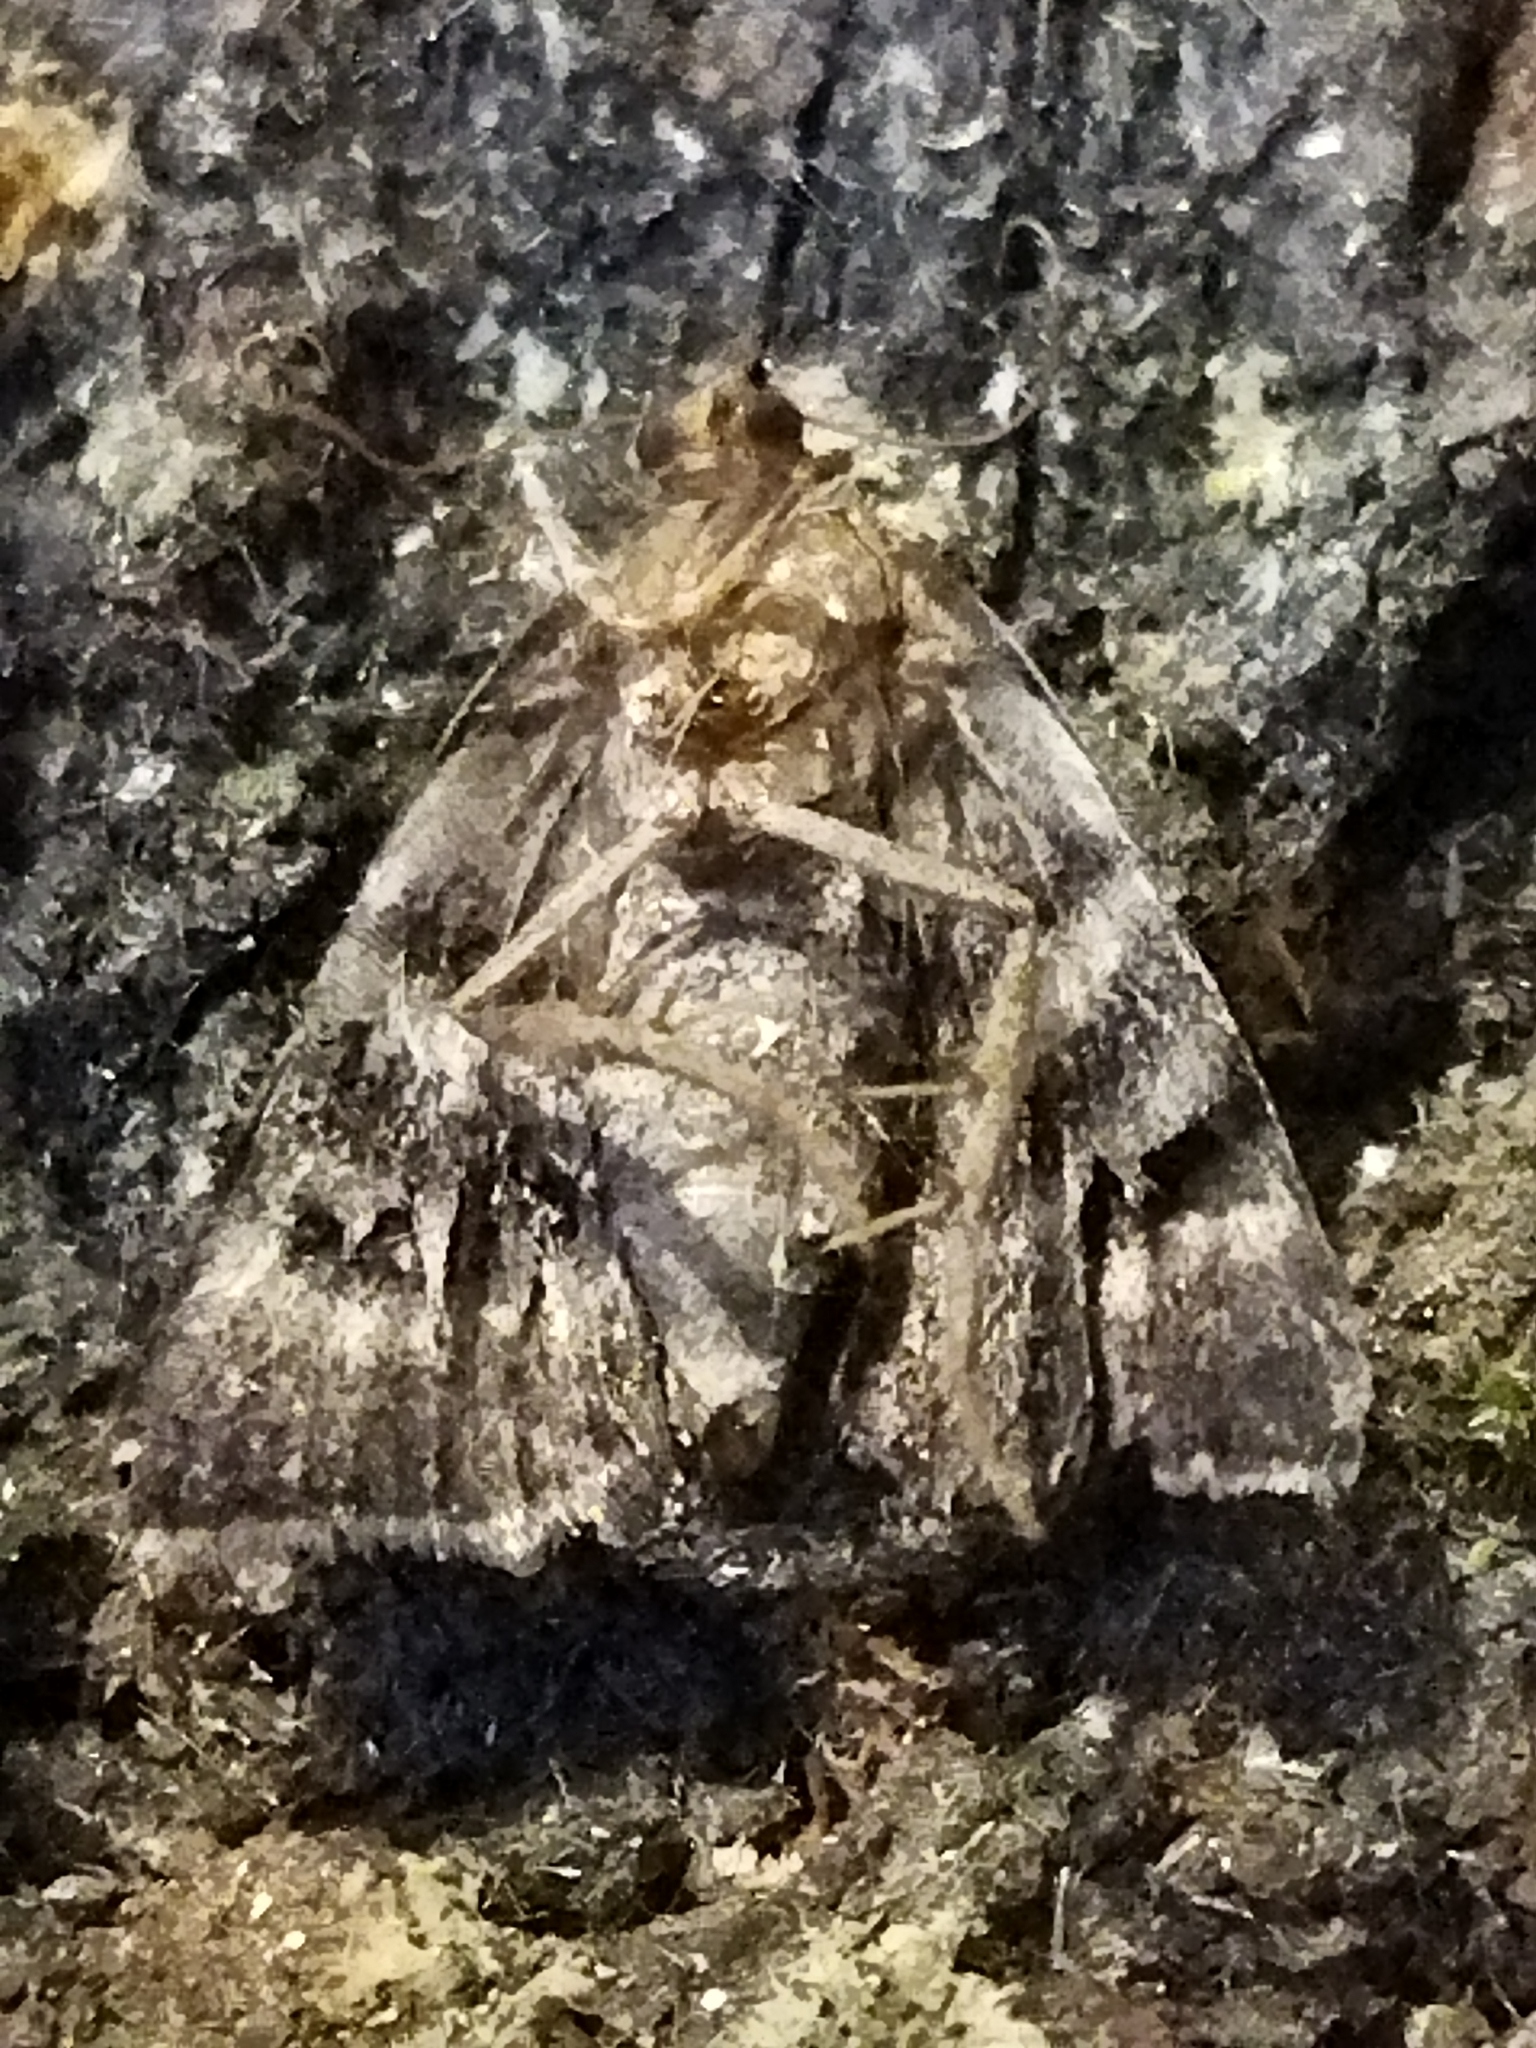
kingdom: Animalia
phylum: Arthropoda
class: Insecta
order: Lepidoptera
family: Noctuidae
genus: Odice
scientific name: Odice suava
